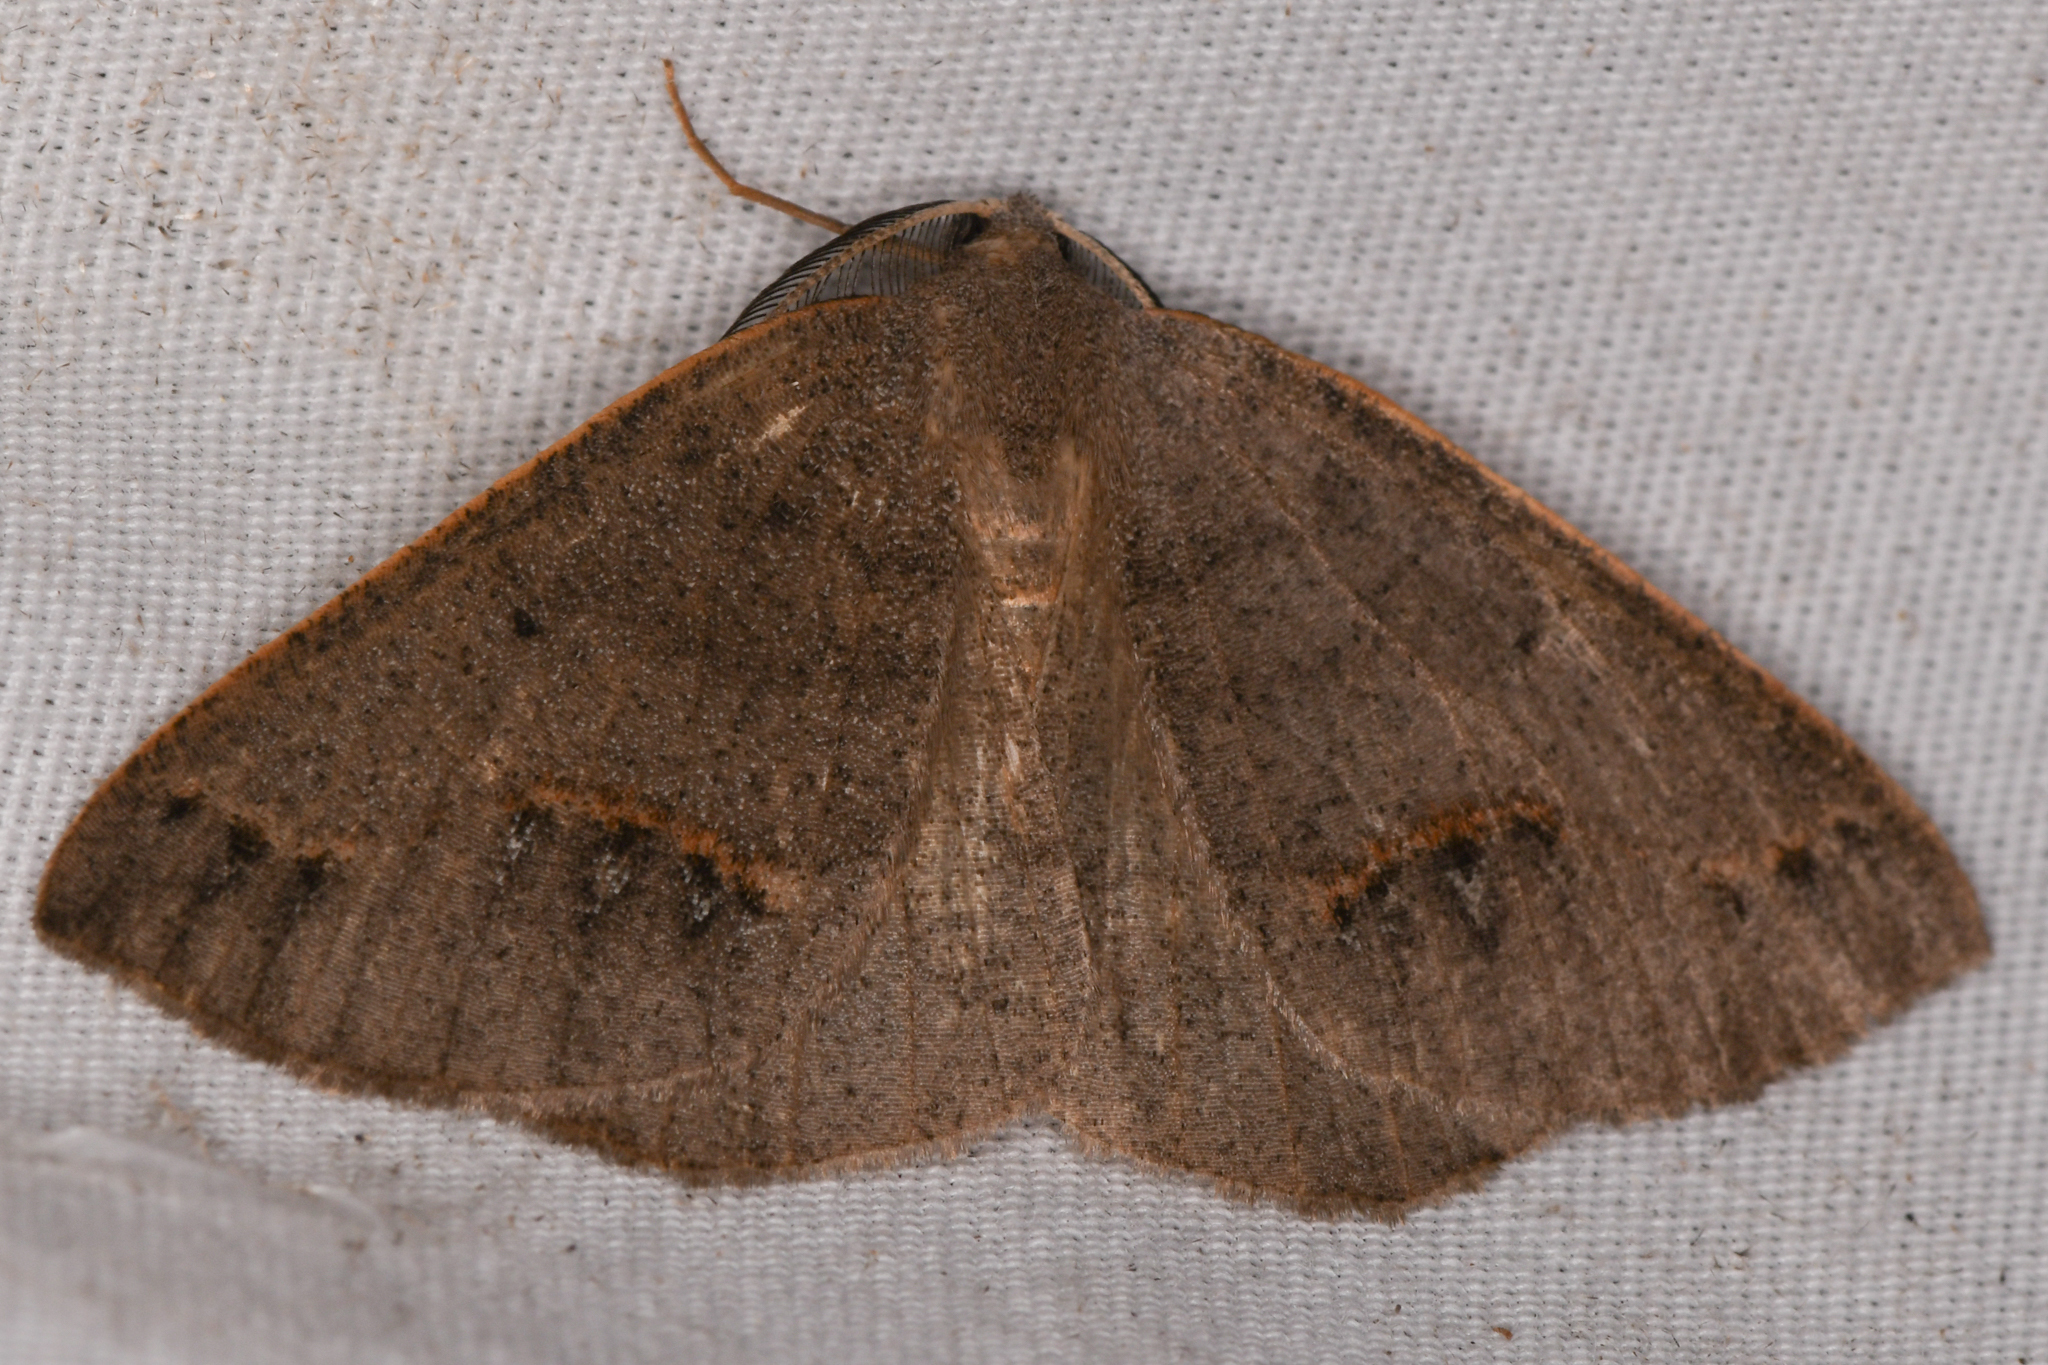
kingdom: Animalia
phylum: Arthropoda
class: Insecta
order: Lepidoptera
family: Geometridae
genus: Drepanulatrix
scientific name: Drepanulatrix unicalcararia
